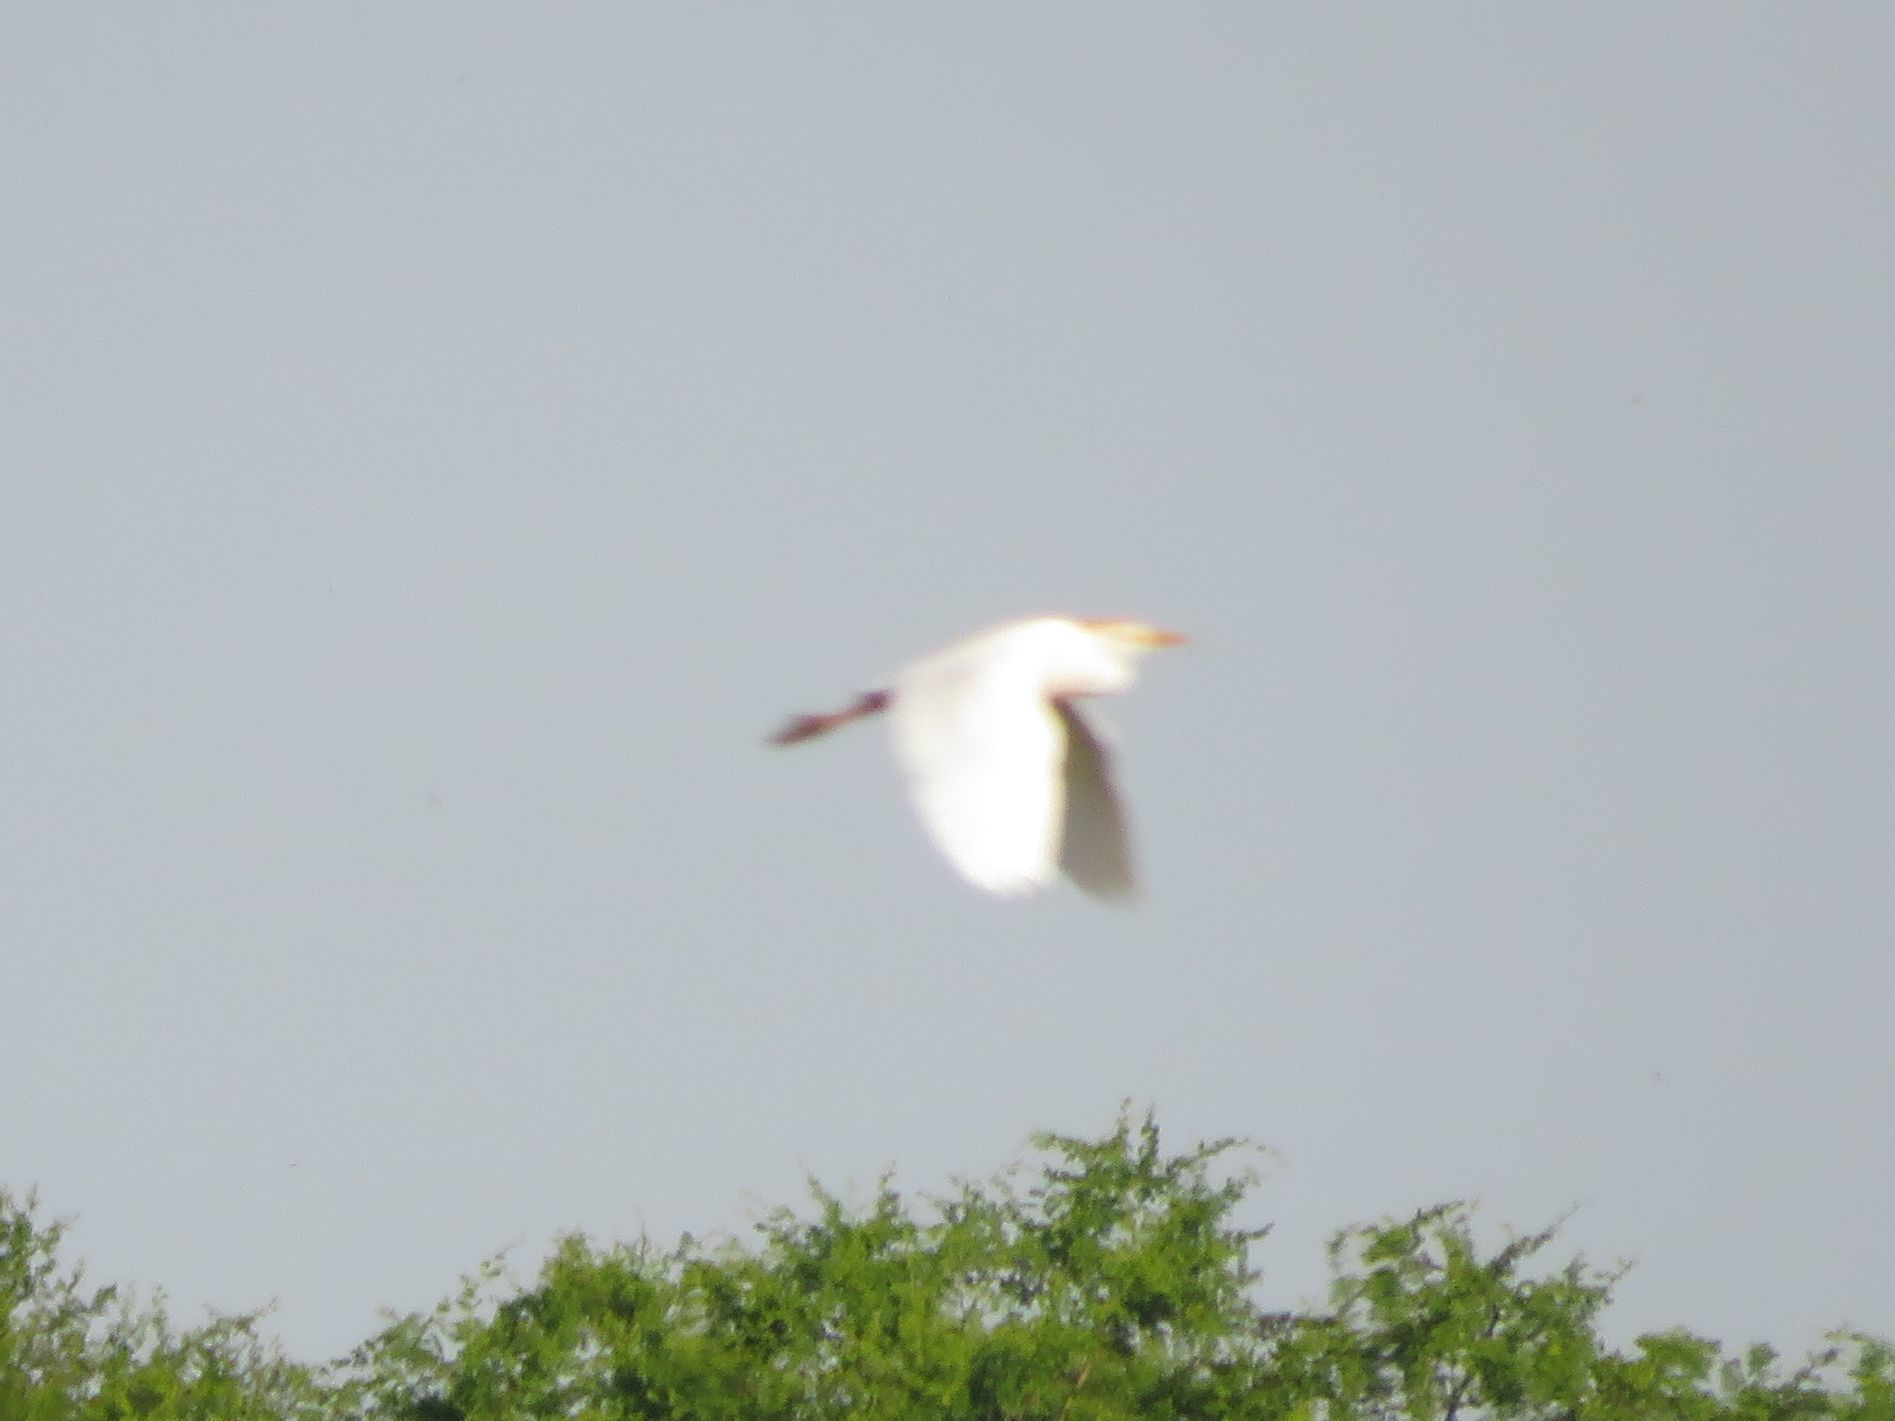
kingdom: Animalia
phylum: Chordata
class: Aves
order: Pelecaniformes
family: Ardeidae
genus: Bubulcus
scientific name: Bubulcus ibis
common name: Cattle egret
